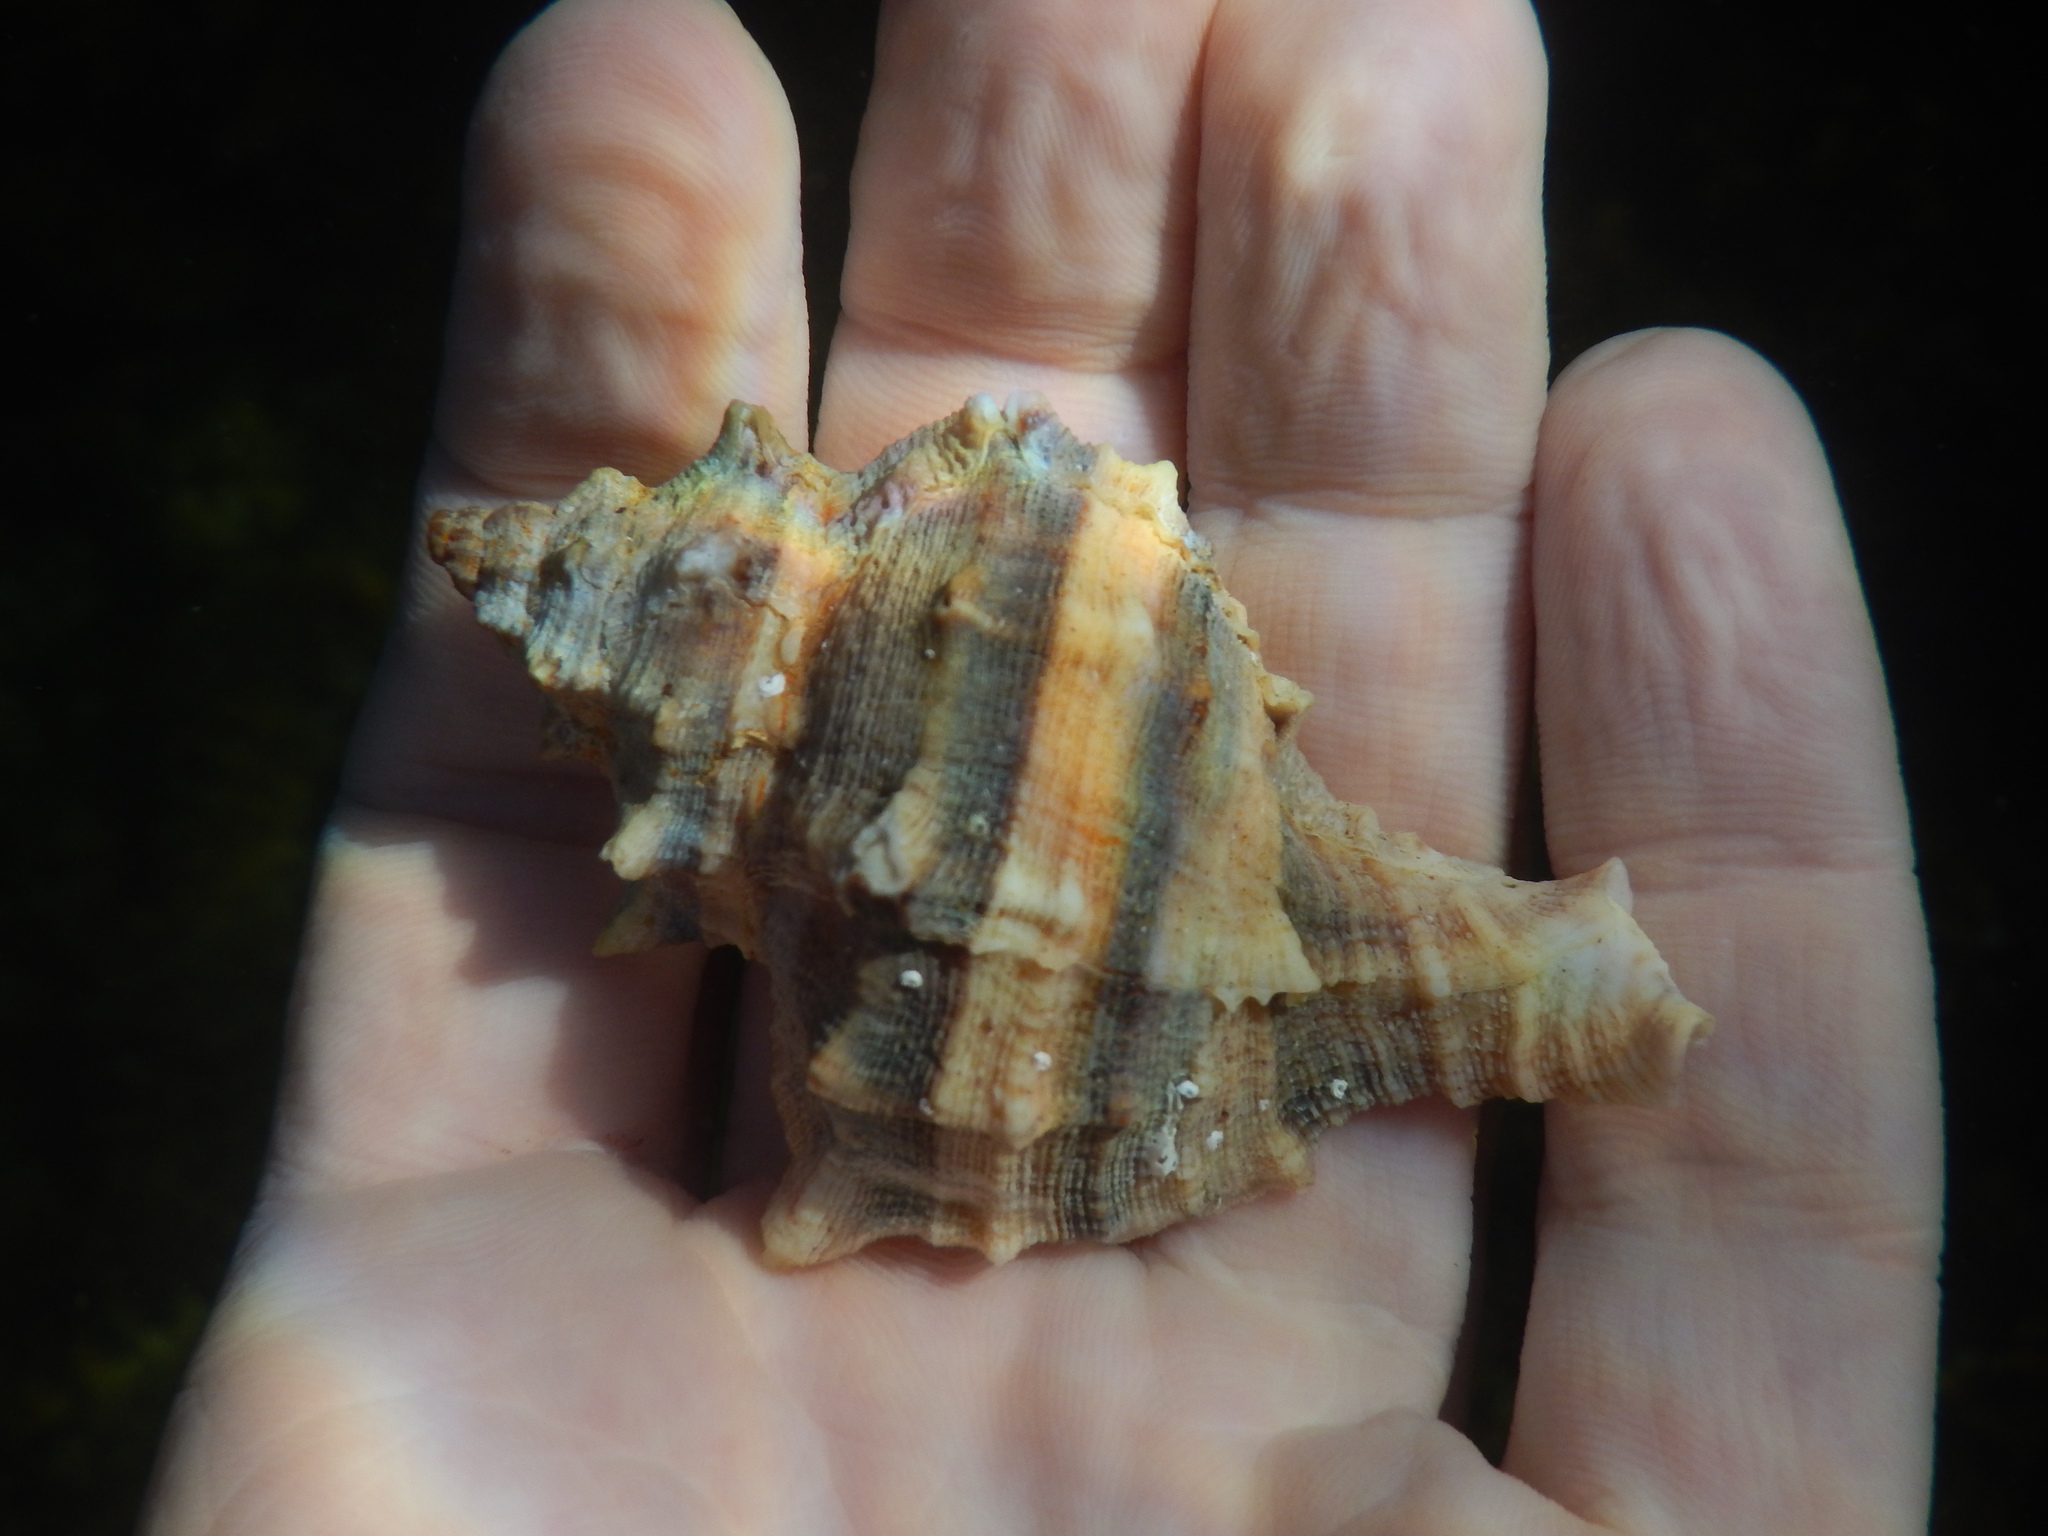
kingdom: Animalia
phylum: Mollusca
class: Gastropoda
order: Neogastropoda
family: Muricidae
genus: Hexaplex
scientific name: Hexaplex trunculus
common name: Banded dye-murex
